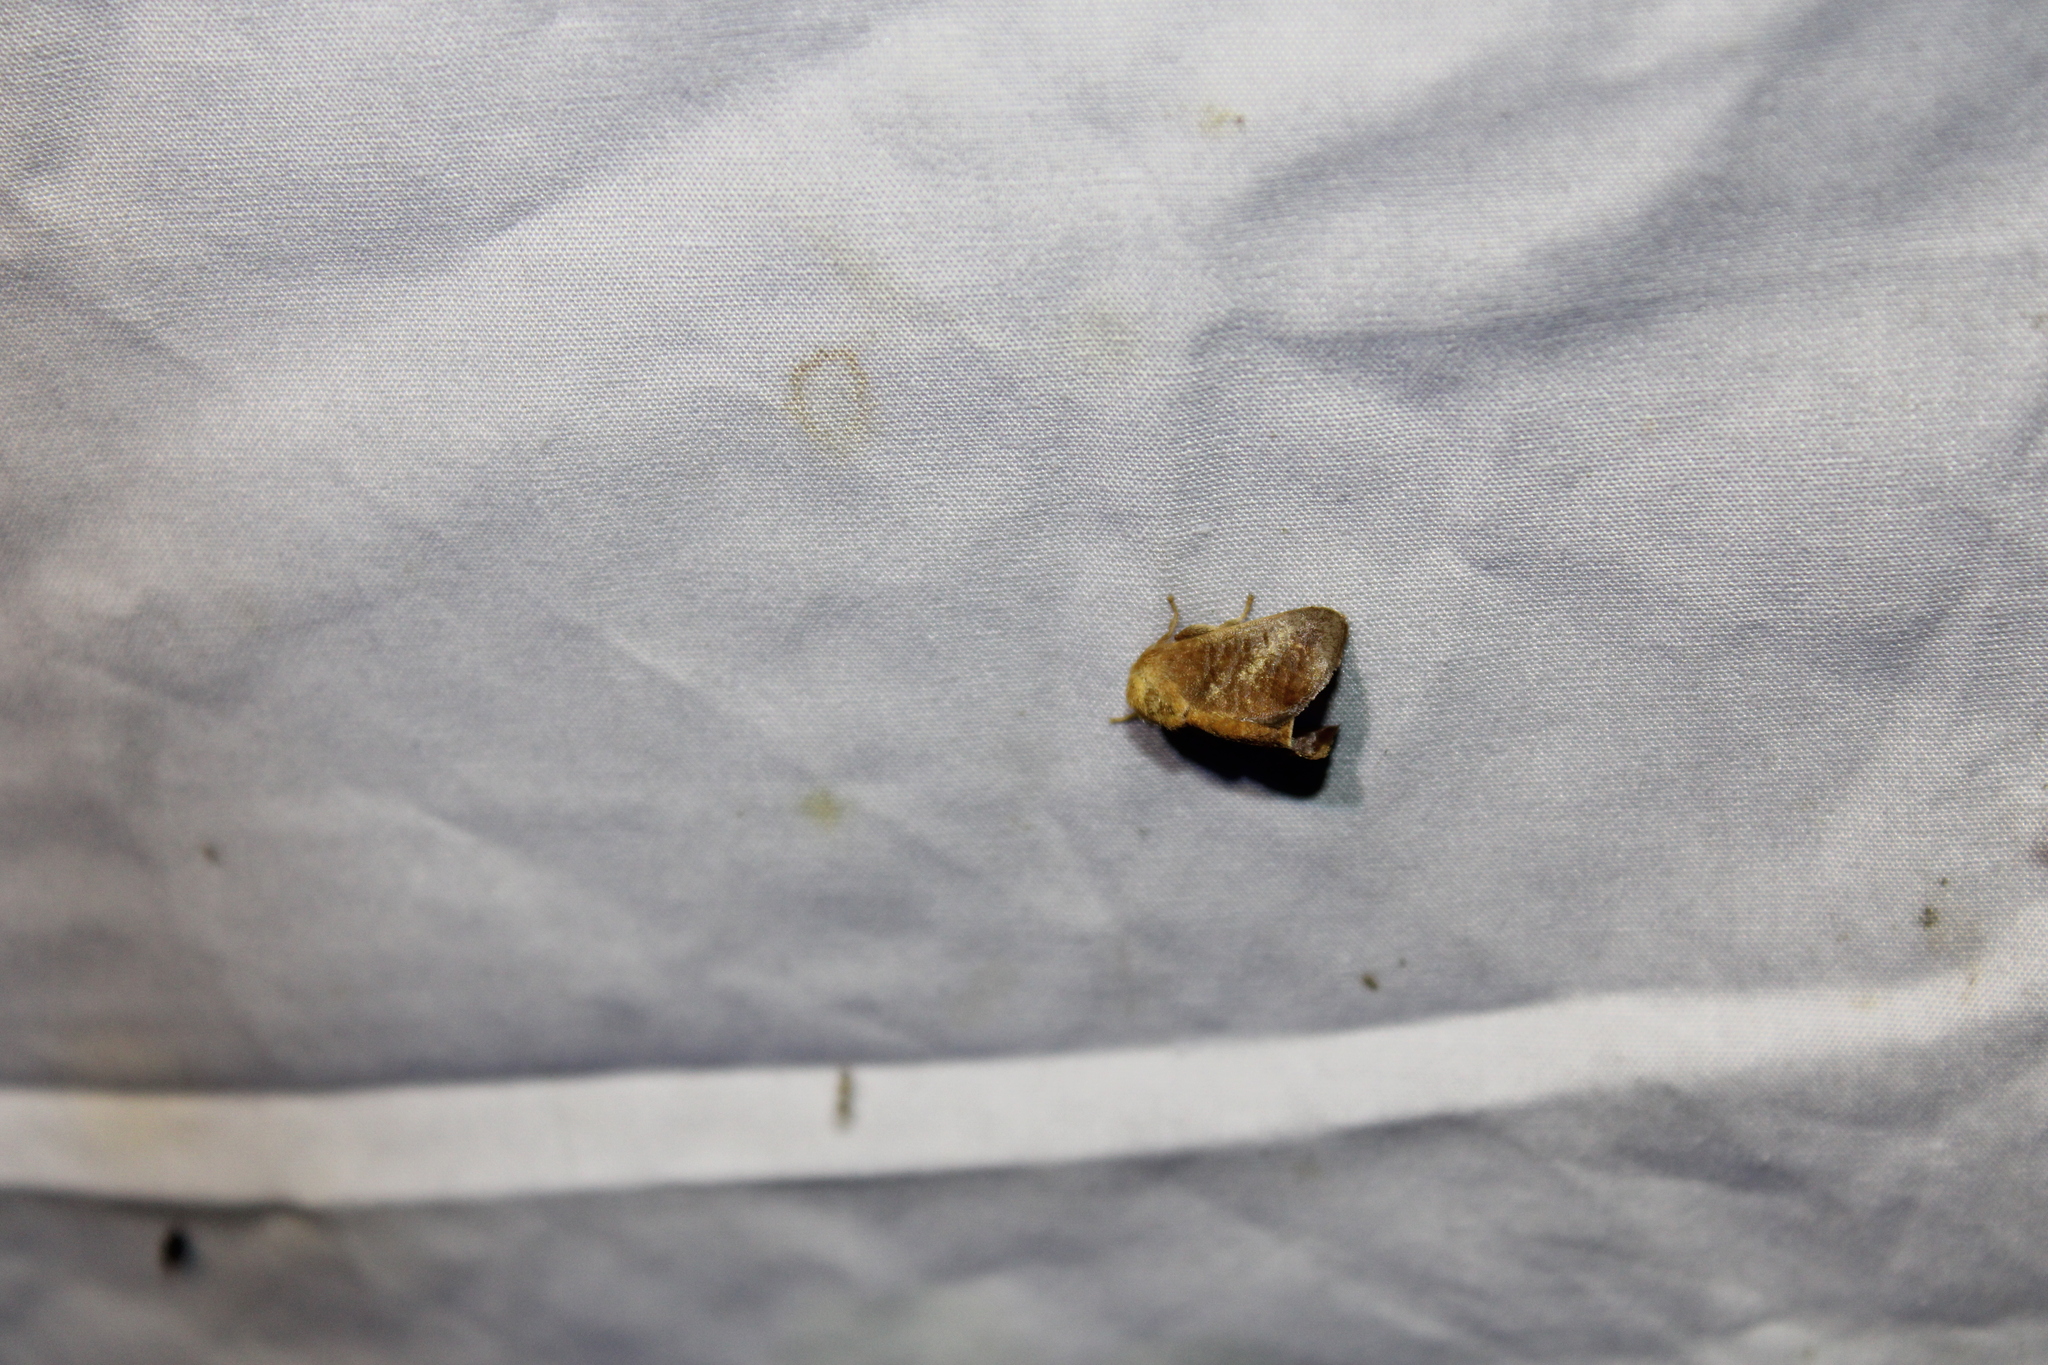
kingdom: Animalia
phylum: Arthropoda
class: Insecta
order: Lepidoptera
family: Limacodidae
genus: Isa
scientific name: Isa textula
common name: Crowned slug moth
